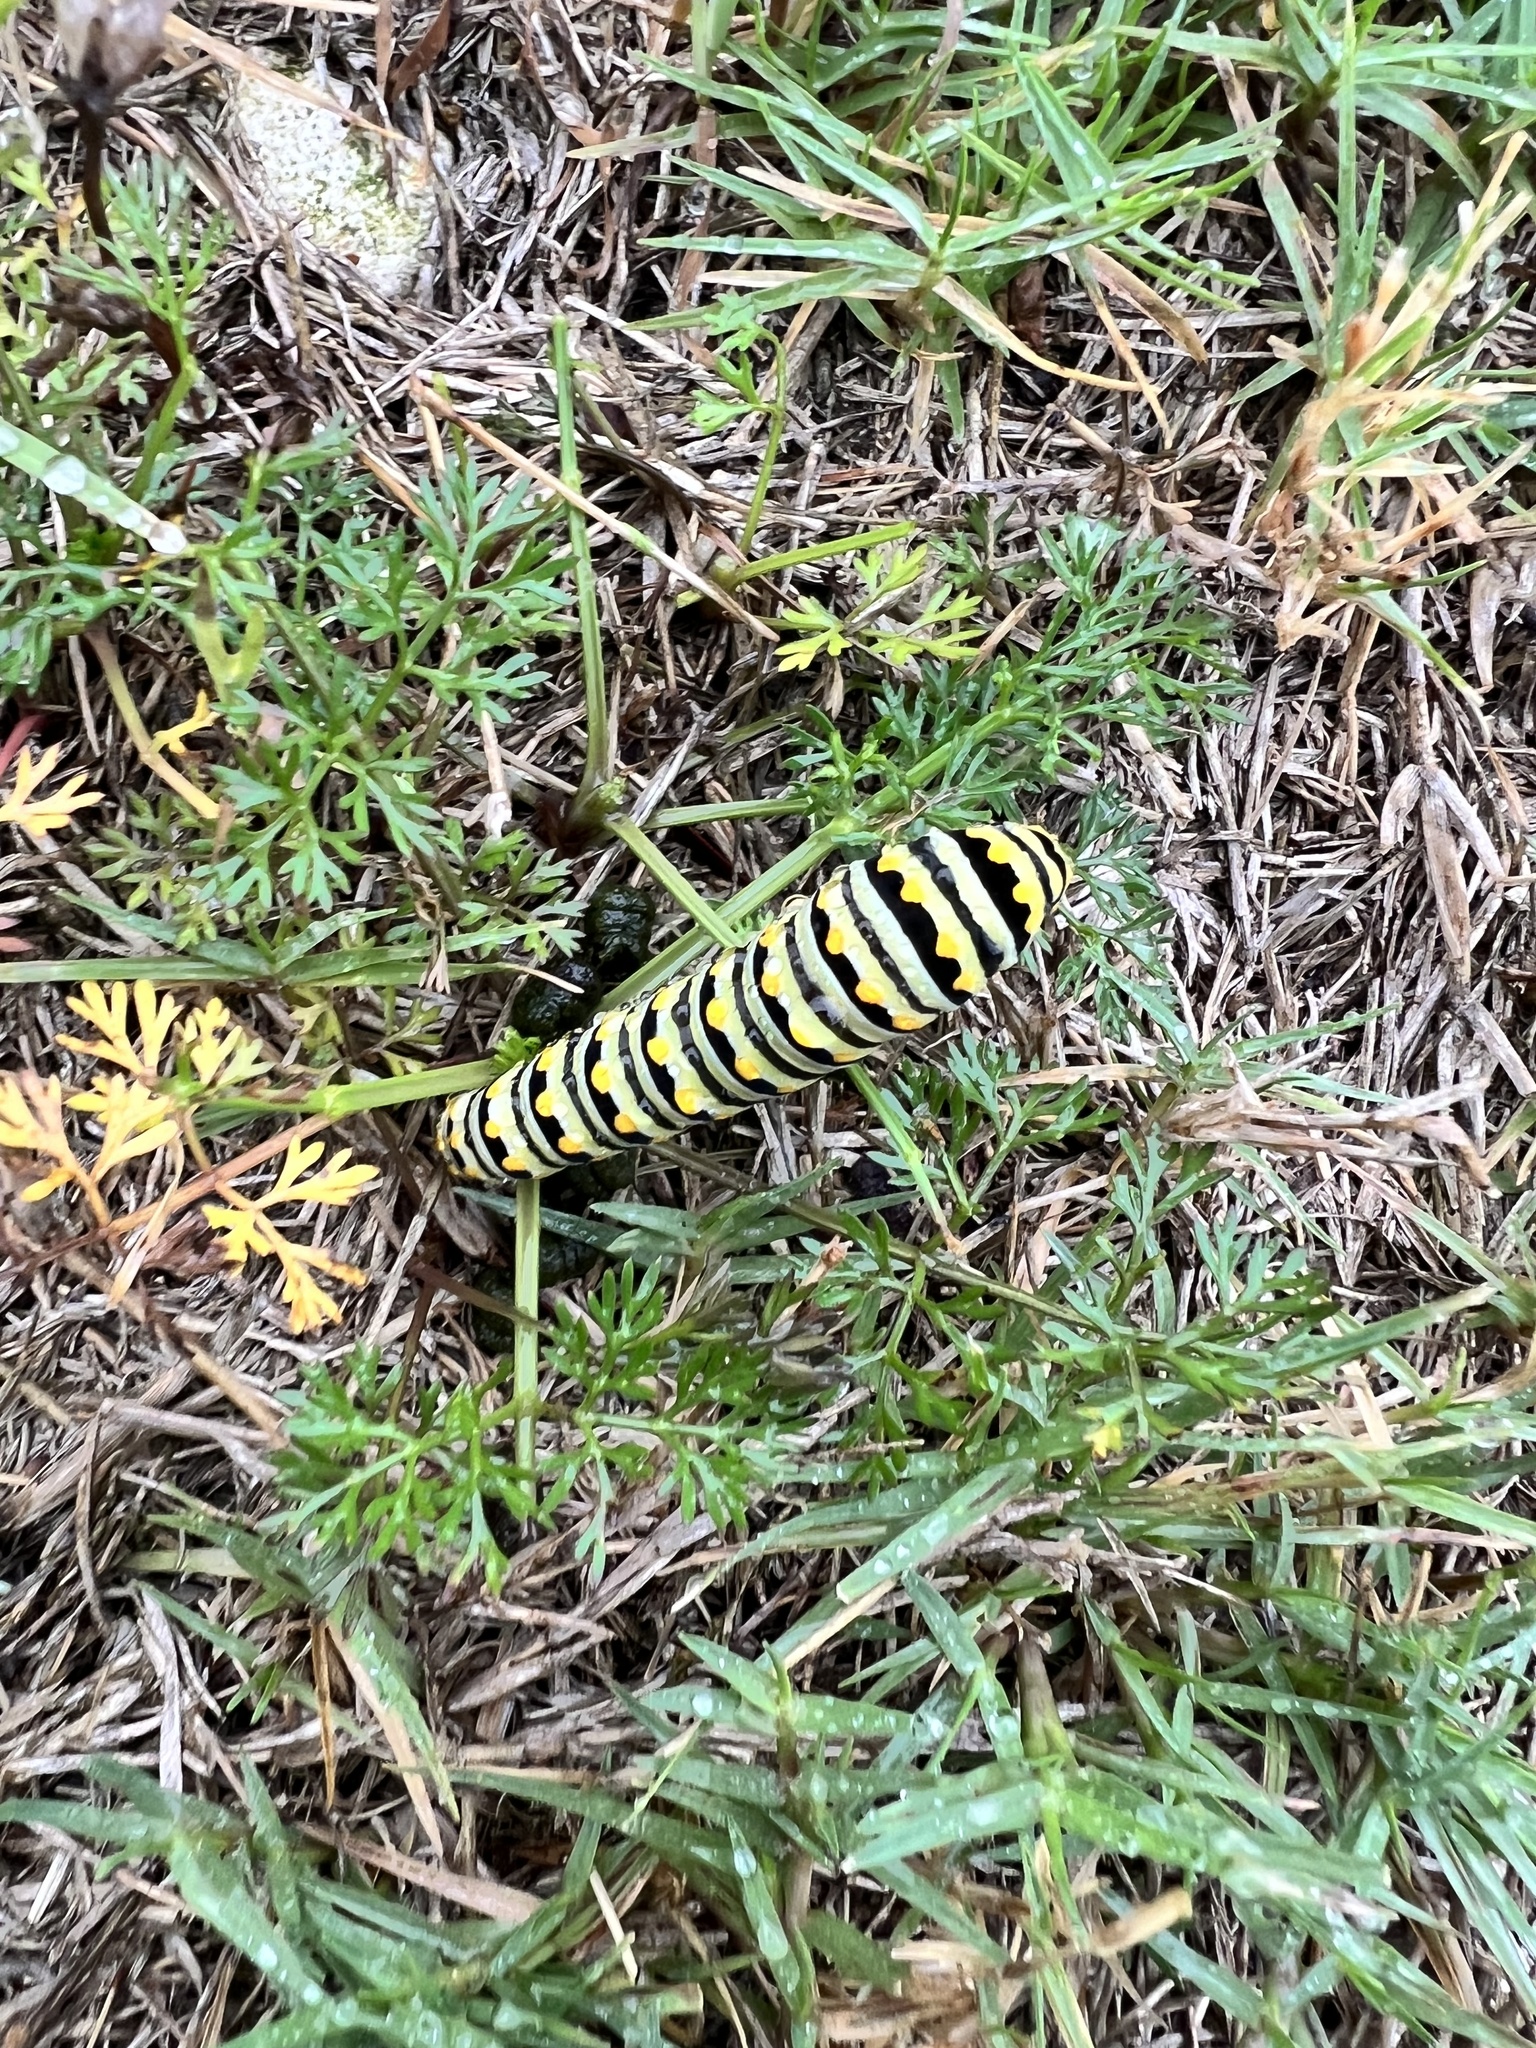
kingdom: Animalia
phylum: Arthropoda
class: Insecta
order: Lepidoptera
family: Papilionidae
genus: Papilio
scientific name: Papilio polyxenes
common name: Black swallowtail
